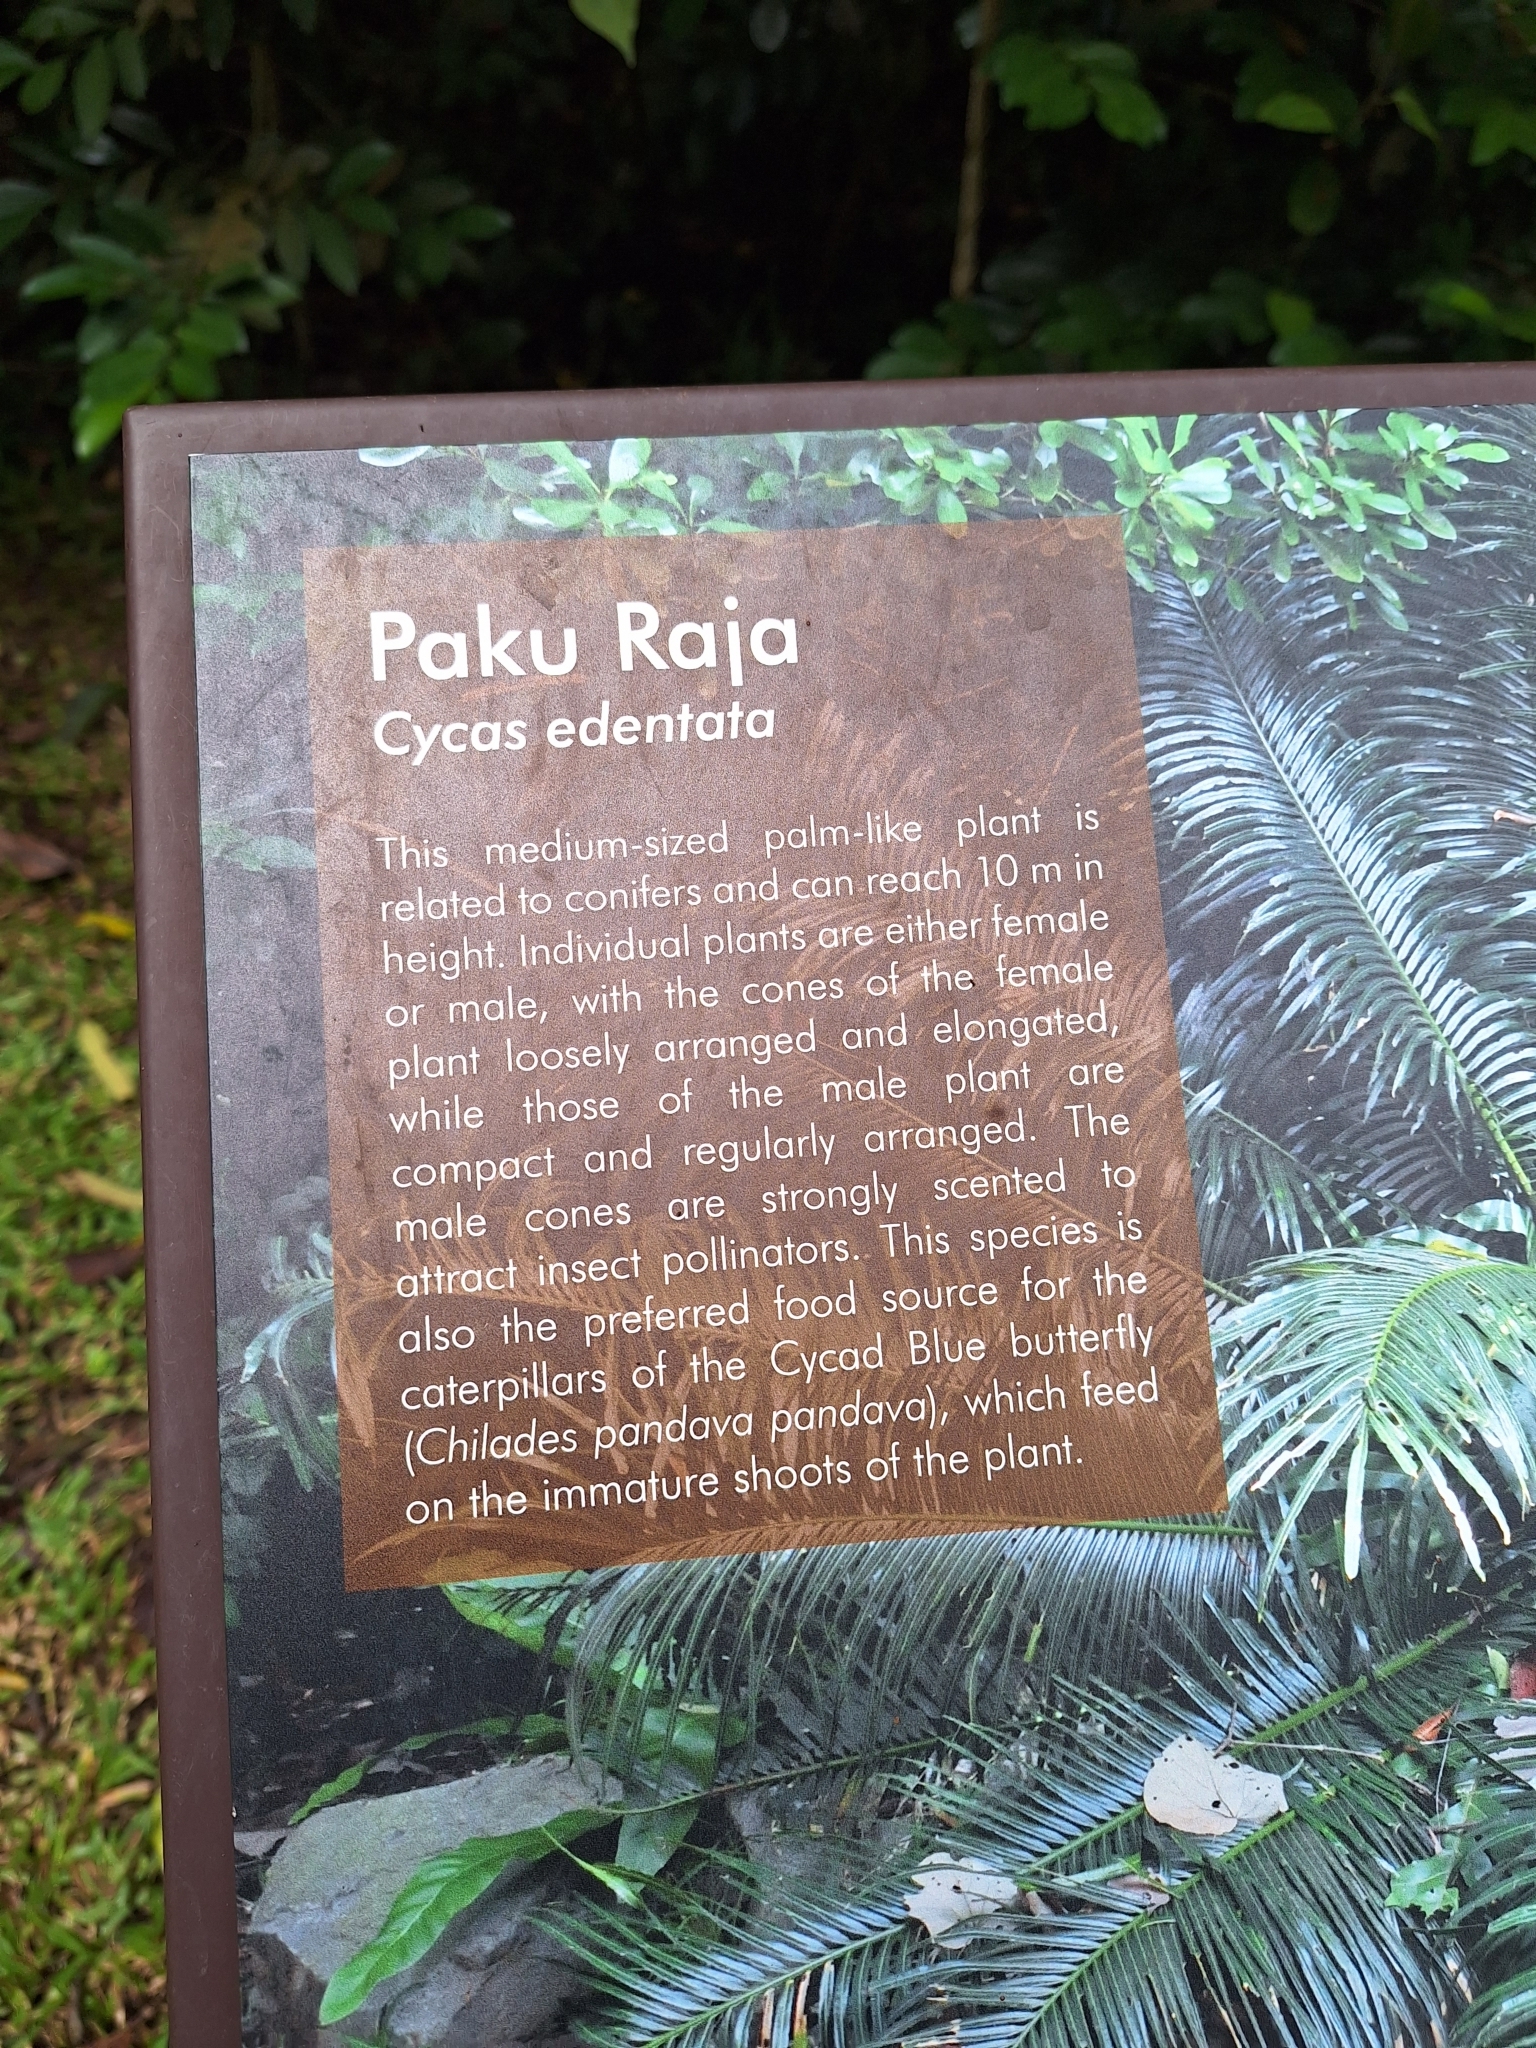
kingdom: Plantae
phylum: Tracheophyta
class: Cycadopsida
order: Cycadales
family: Cycadaceae
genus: Cycas
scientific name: Cycas edentata
